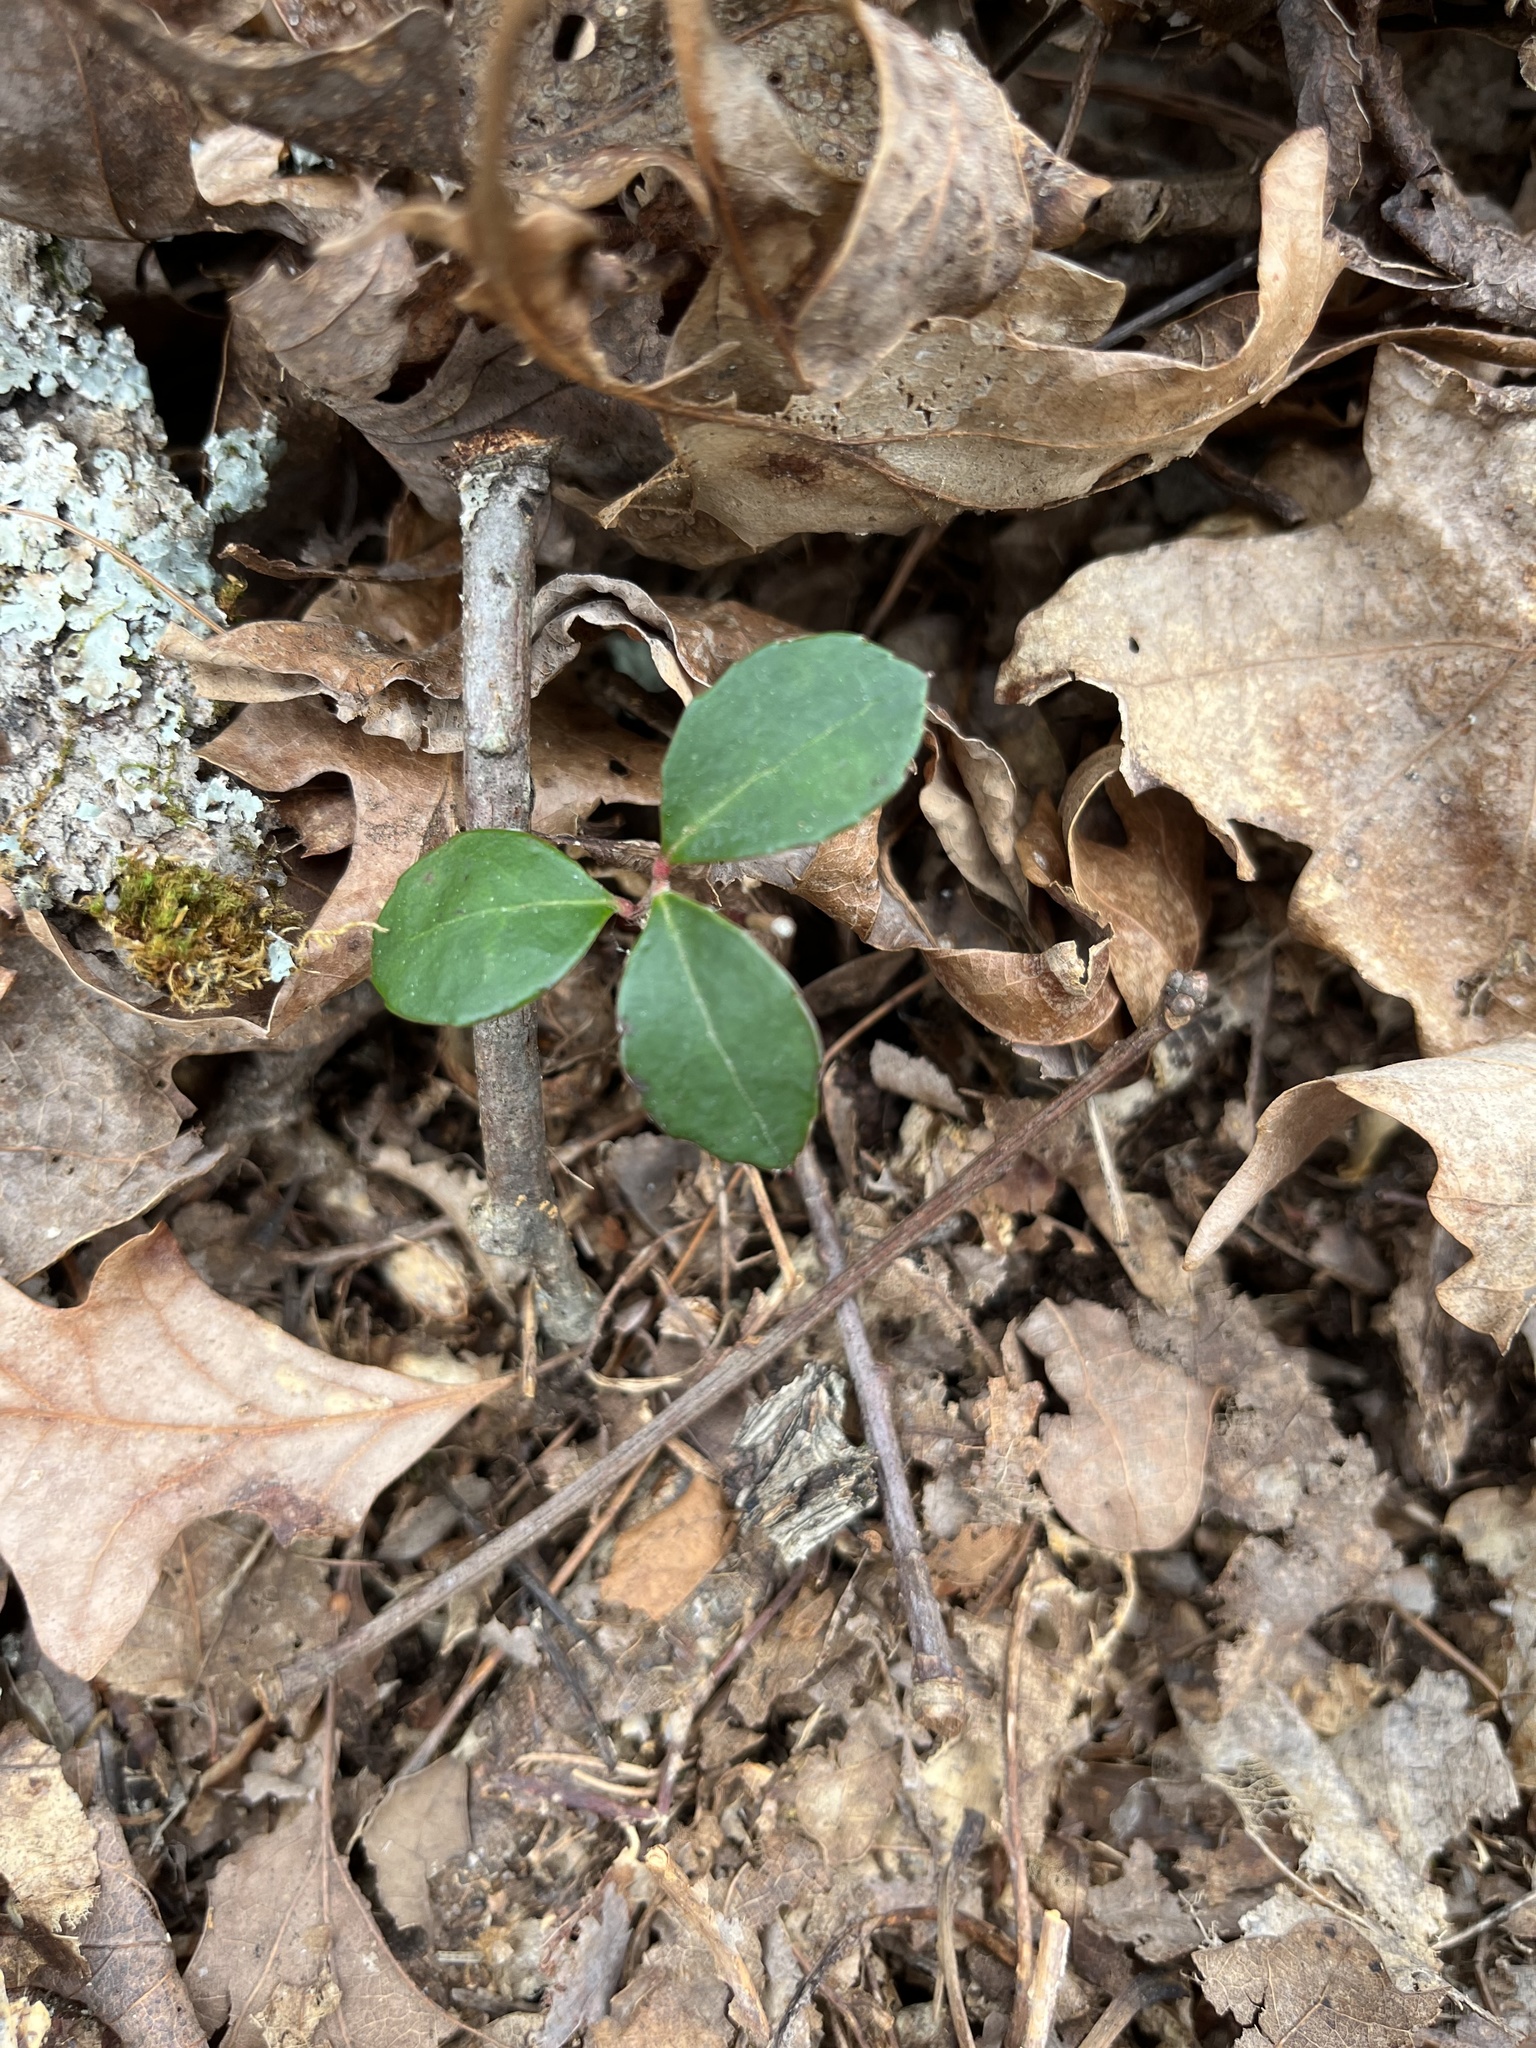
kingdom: Plantae
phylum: Tracheophyta
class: Magnoliopsida
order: Ericales
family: Ericaceae
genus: Gaultheria
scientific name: Gaultheria procumbens
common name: Checkerberry
